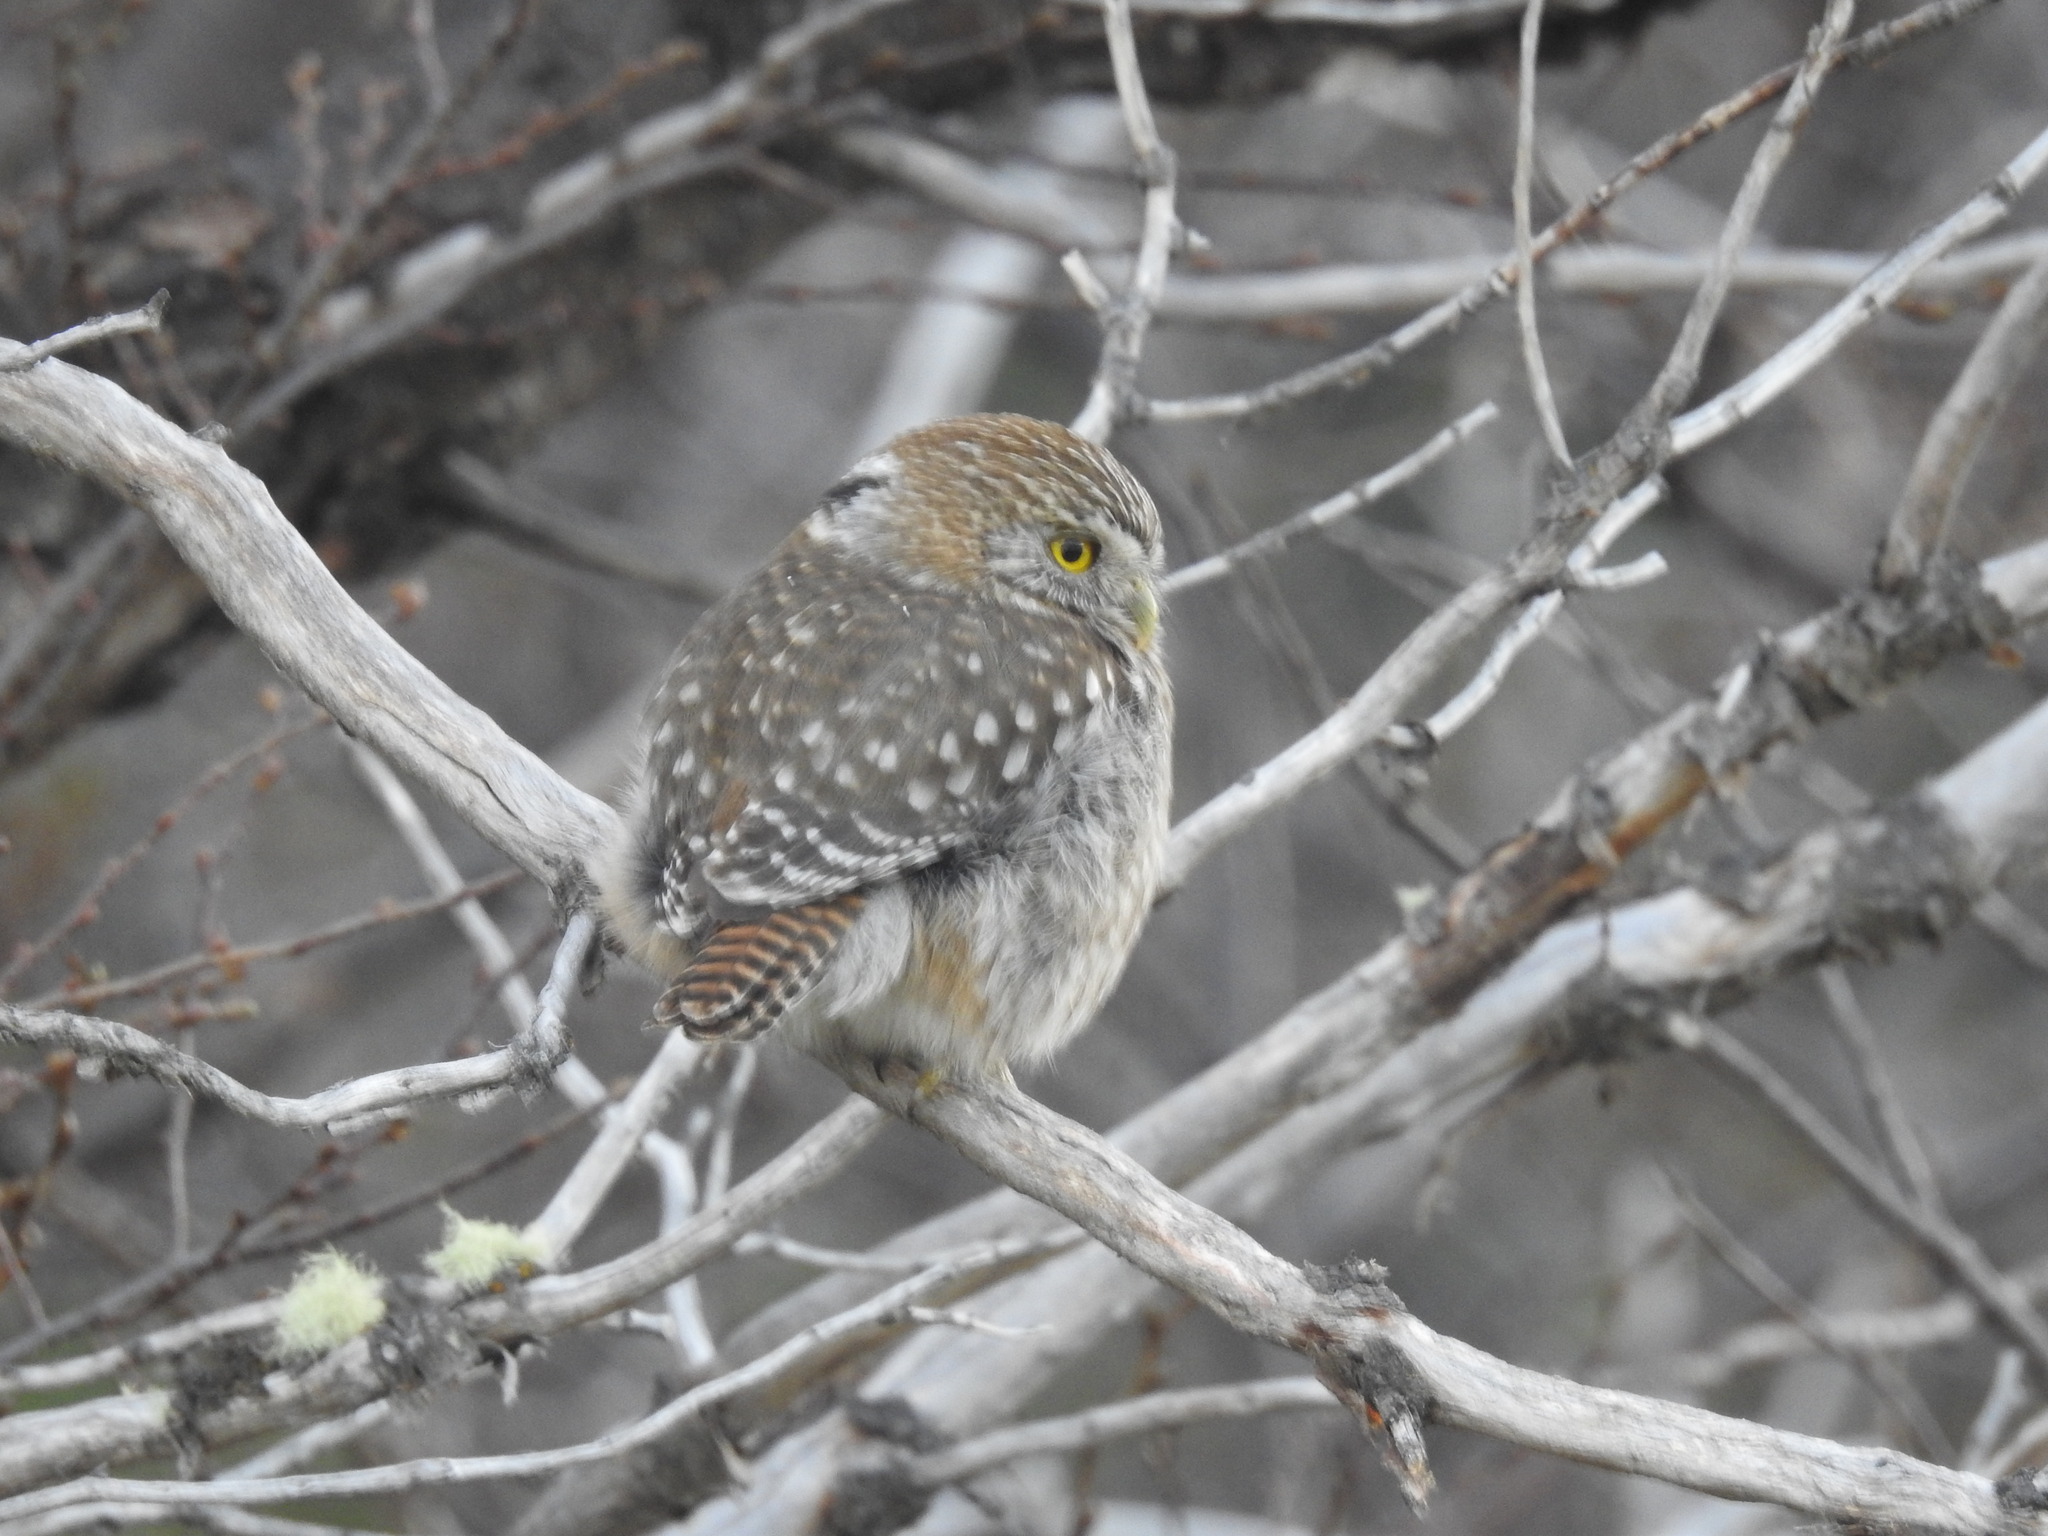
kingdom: Animalia
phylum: Chordata
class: Aves
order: Strigiformes
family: Strigidae
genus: Glaucidium
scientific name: Glaucidium nana
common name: Austral pygmy-owl
